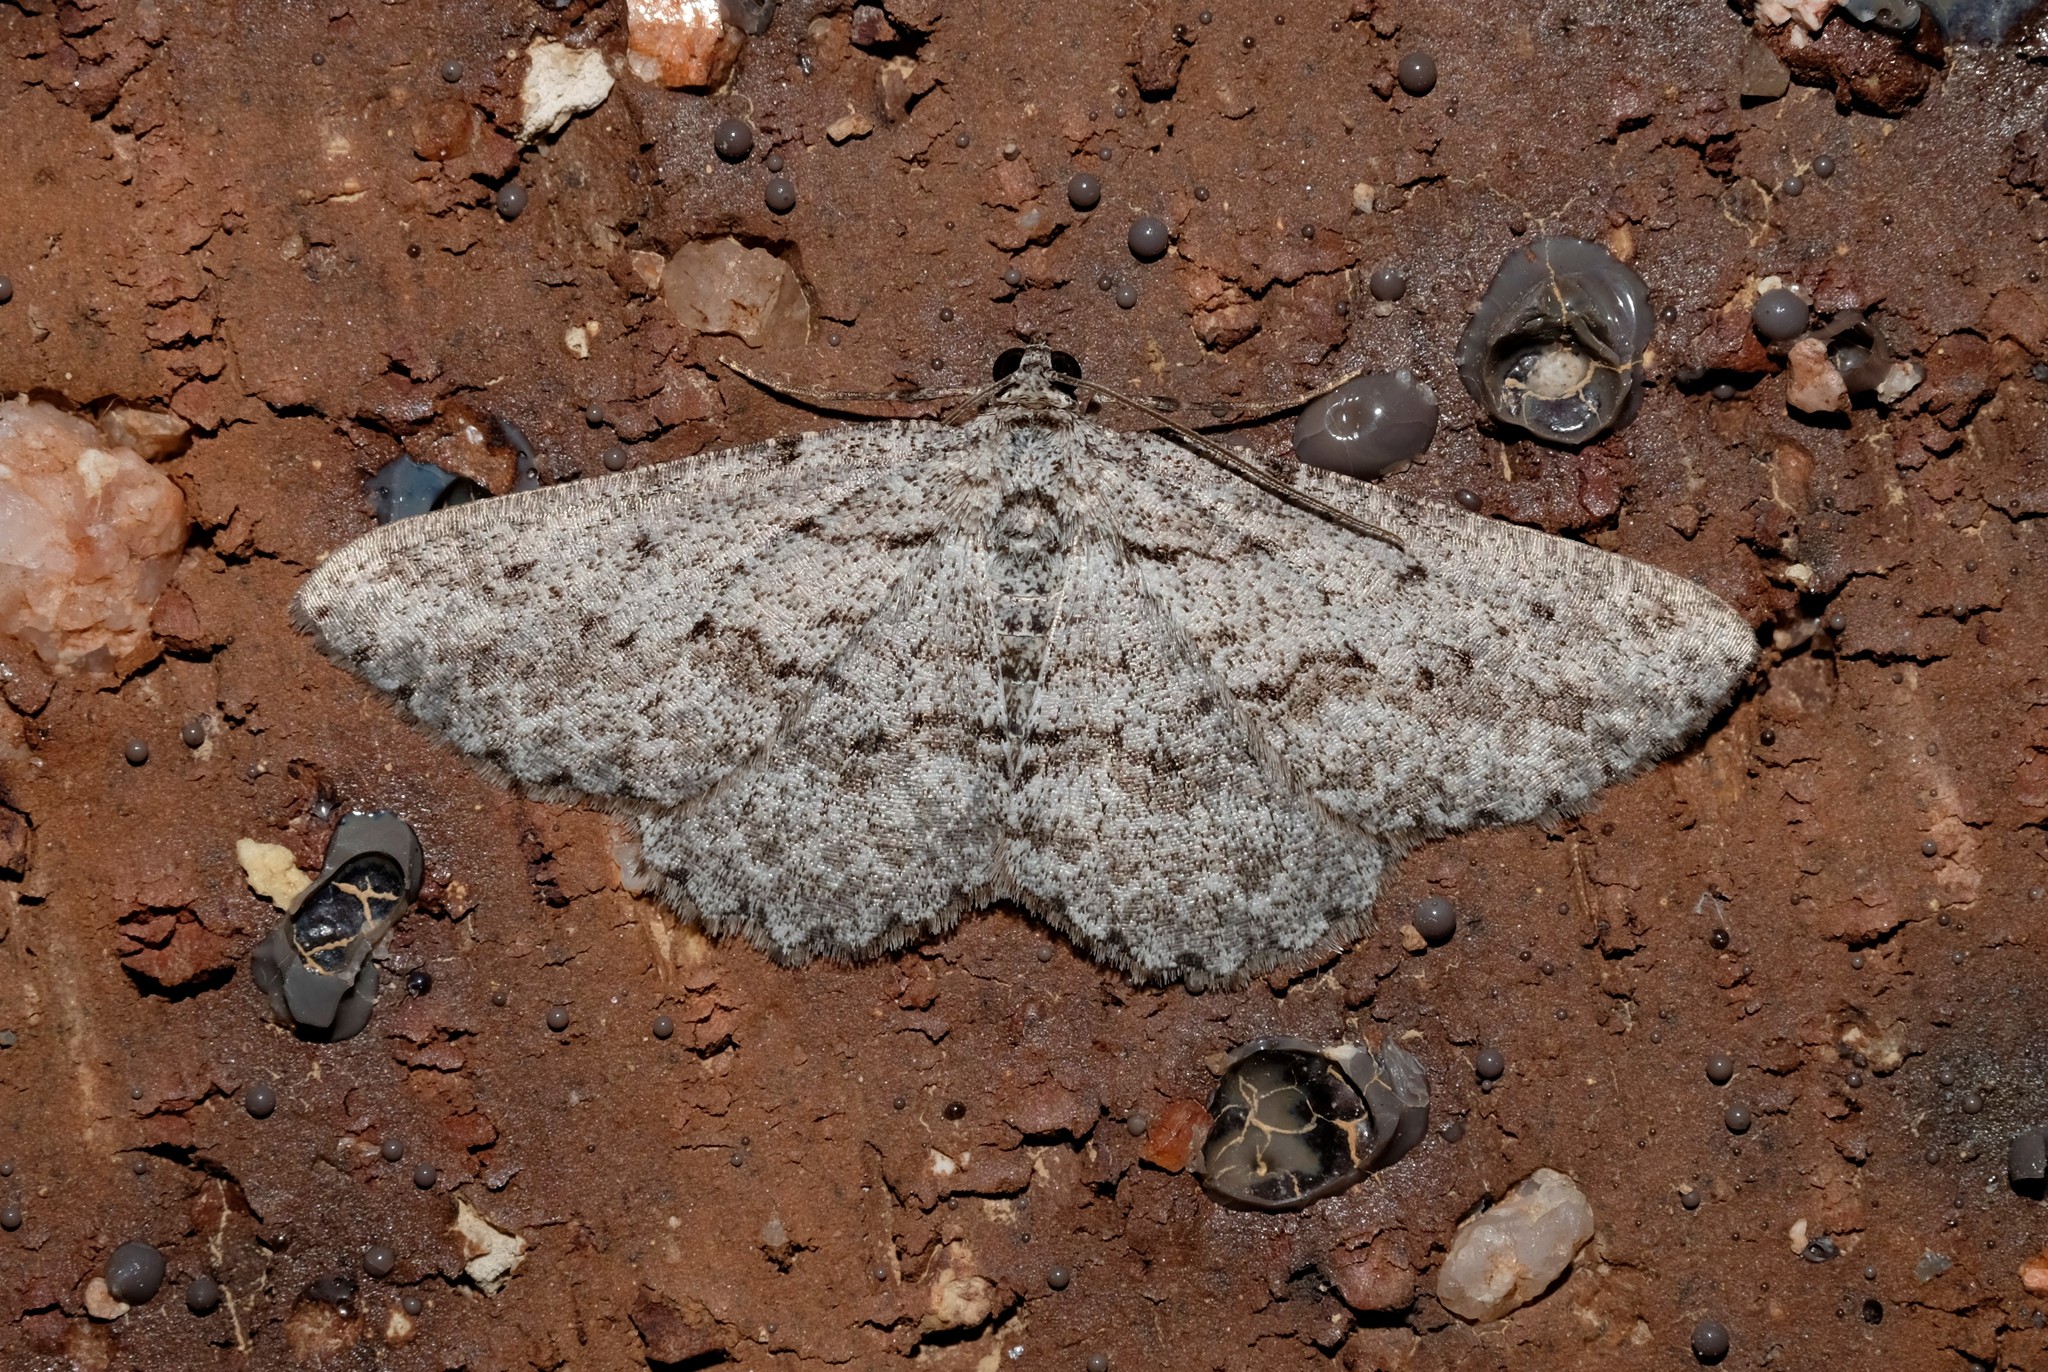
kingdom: Animalia
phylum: Arthropoda
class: Insecta
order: Lepidoptera
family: Geometridae
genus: Psilosticha
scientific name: Psilosticha absorpta
